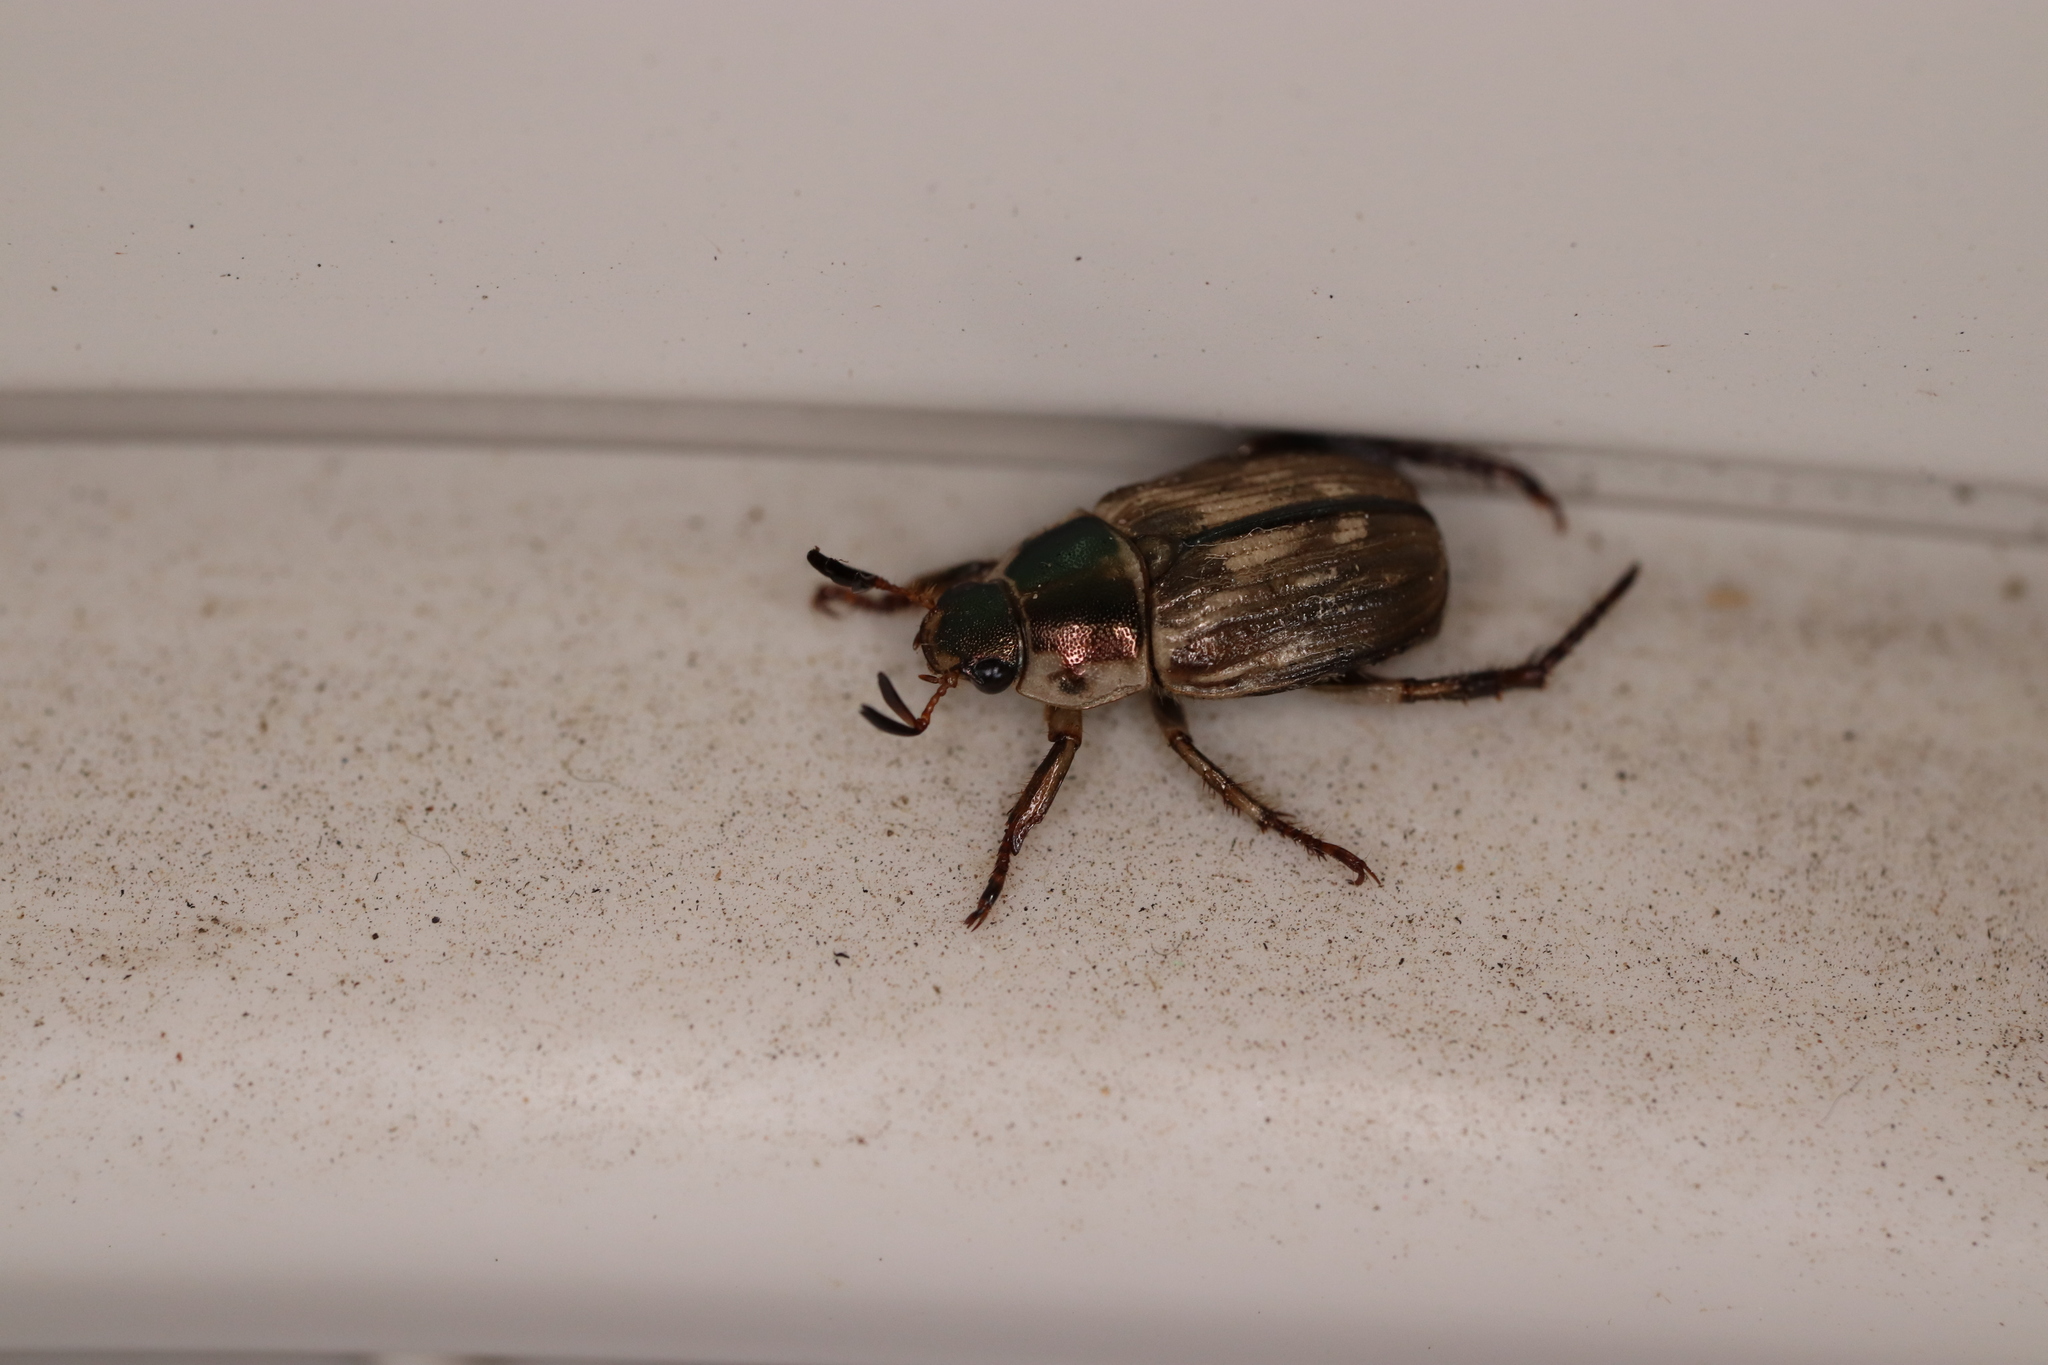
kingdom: Animalia
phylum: Arthropoda
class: Insecta
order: Coleoptera
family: Scarabaeidae
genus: Exomala
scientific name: Exomala orientalis
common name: Oriental beetle
